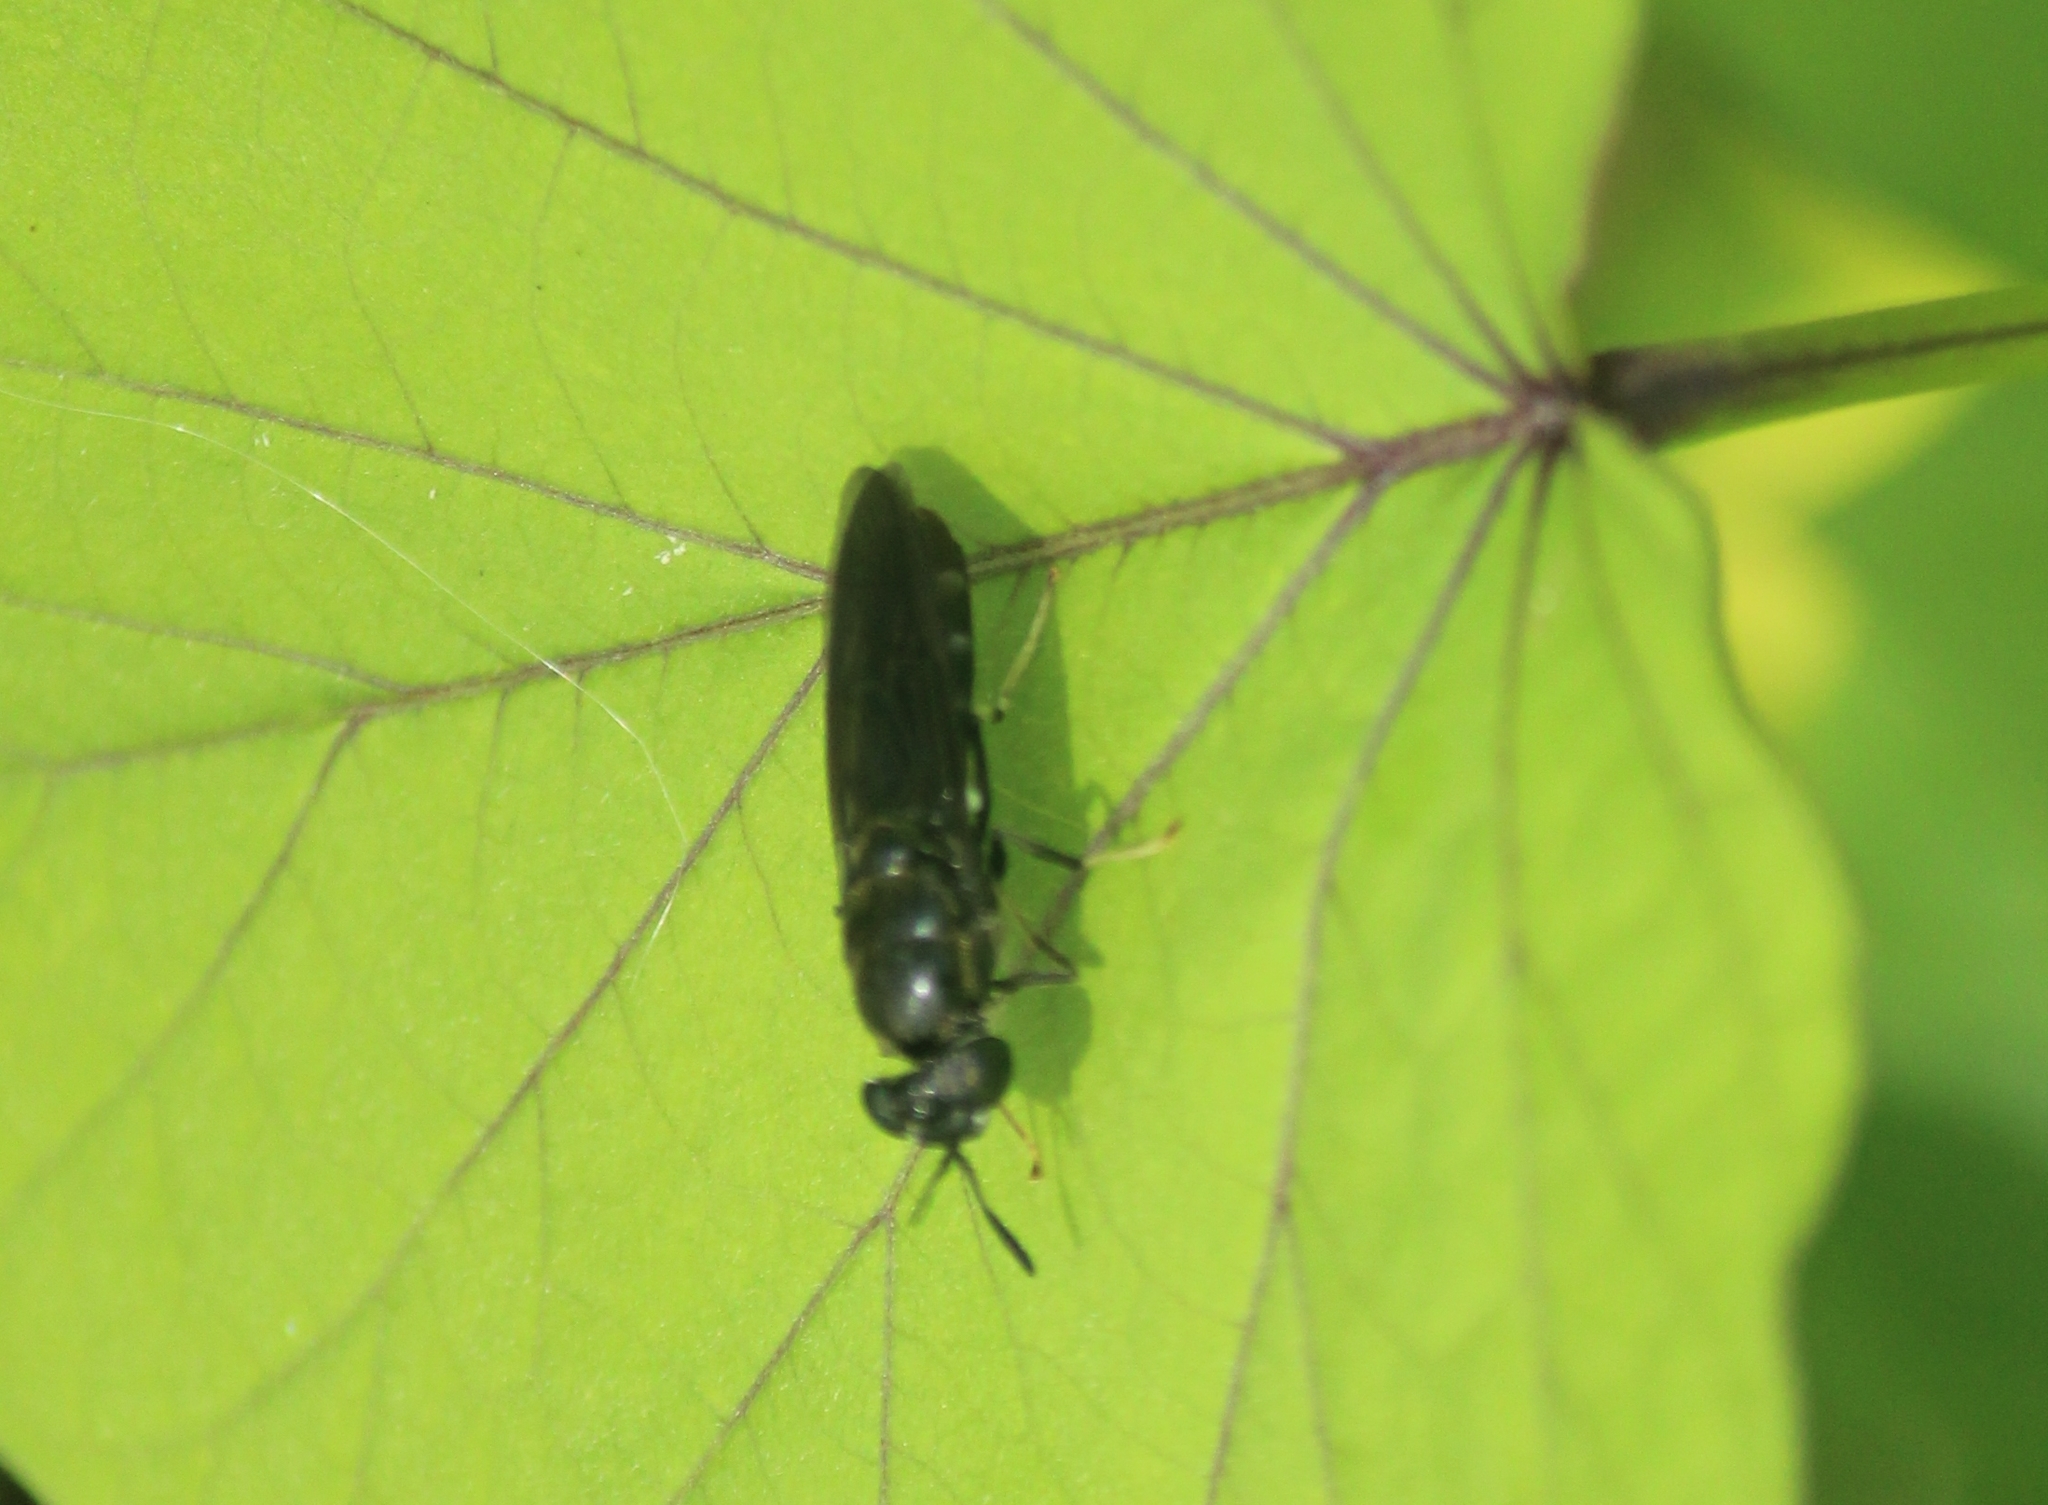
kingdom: Animalia
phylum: Arthropoda
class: Insecta
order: Diptera
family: Stratiomyidae
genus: Hermetia
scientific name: Hermetia illucens
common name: Black soldier fly
